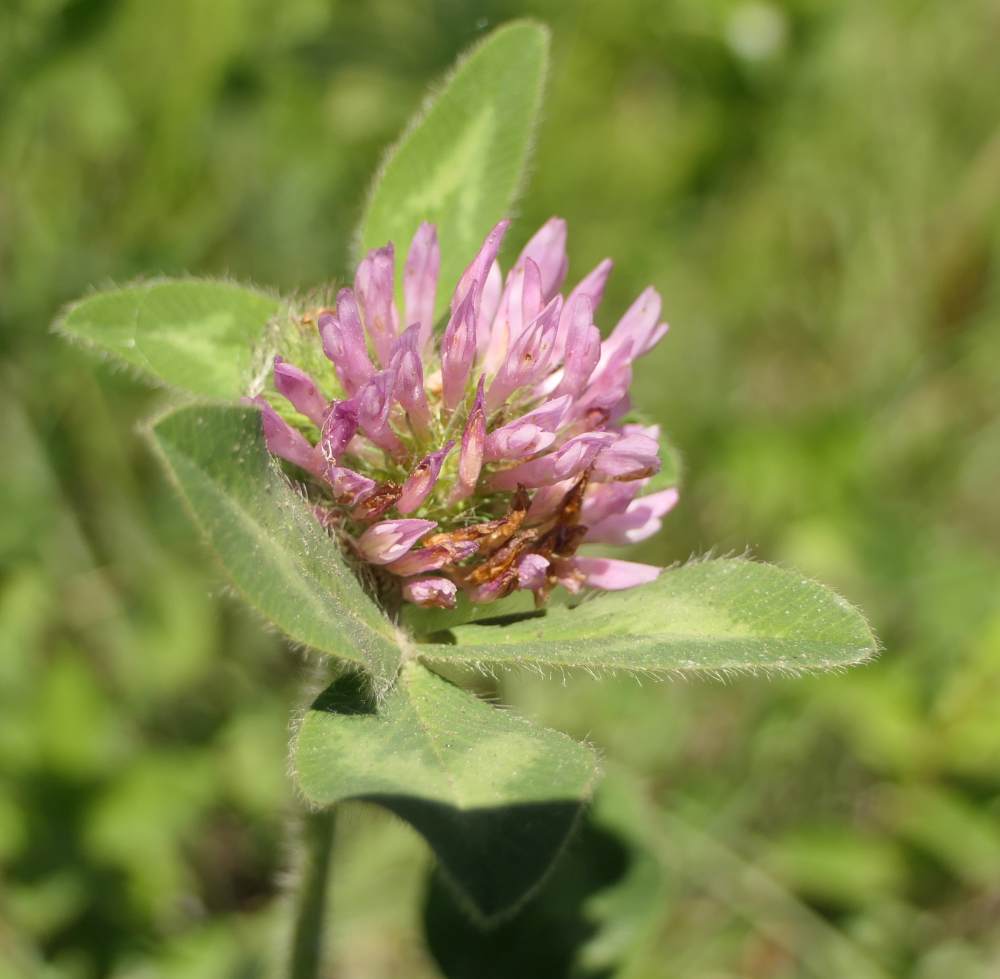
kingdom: Plantae
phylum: Tracheophyta
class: Magnoliopsida
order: Fabales
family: Fabaceae
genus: Trifolium
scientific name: Trifolium pratense
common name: Red clover
